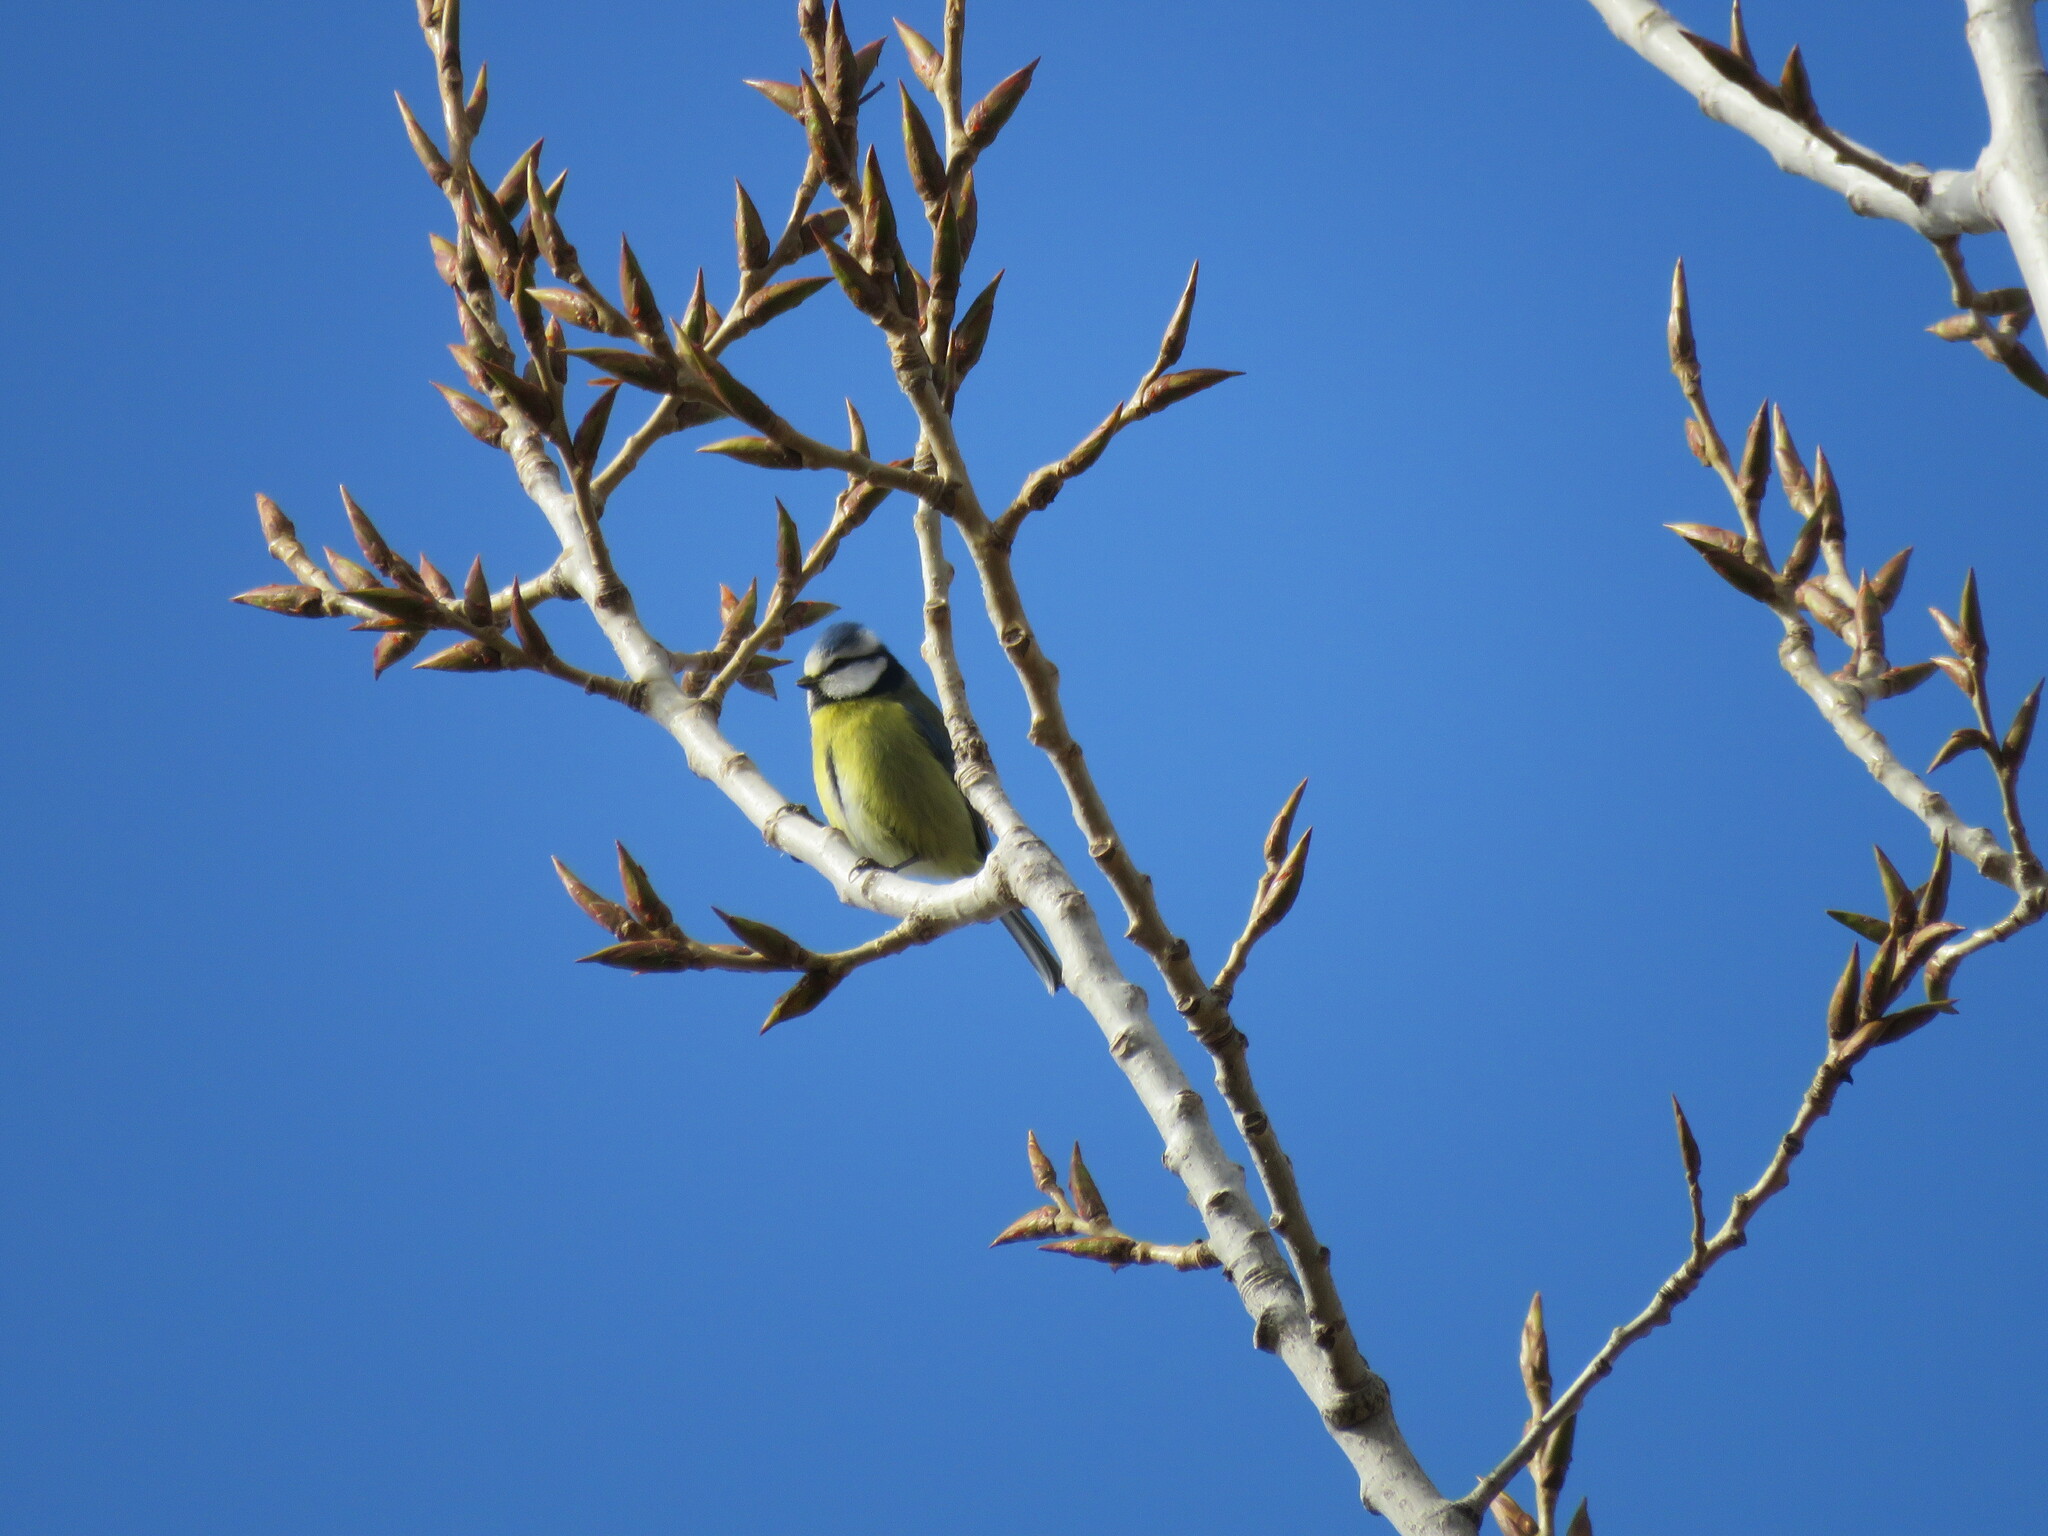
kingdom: Animalia
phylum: Chordata
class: Aves
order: Passeriformes
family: Paridae
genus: Cyanistes
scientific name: Cyanistes caeruleus
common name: Eurasian blue tit
